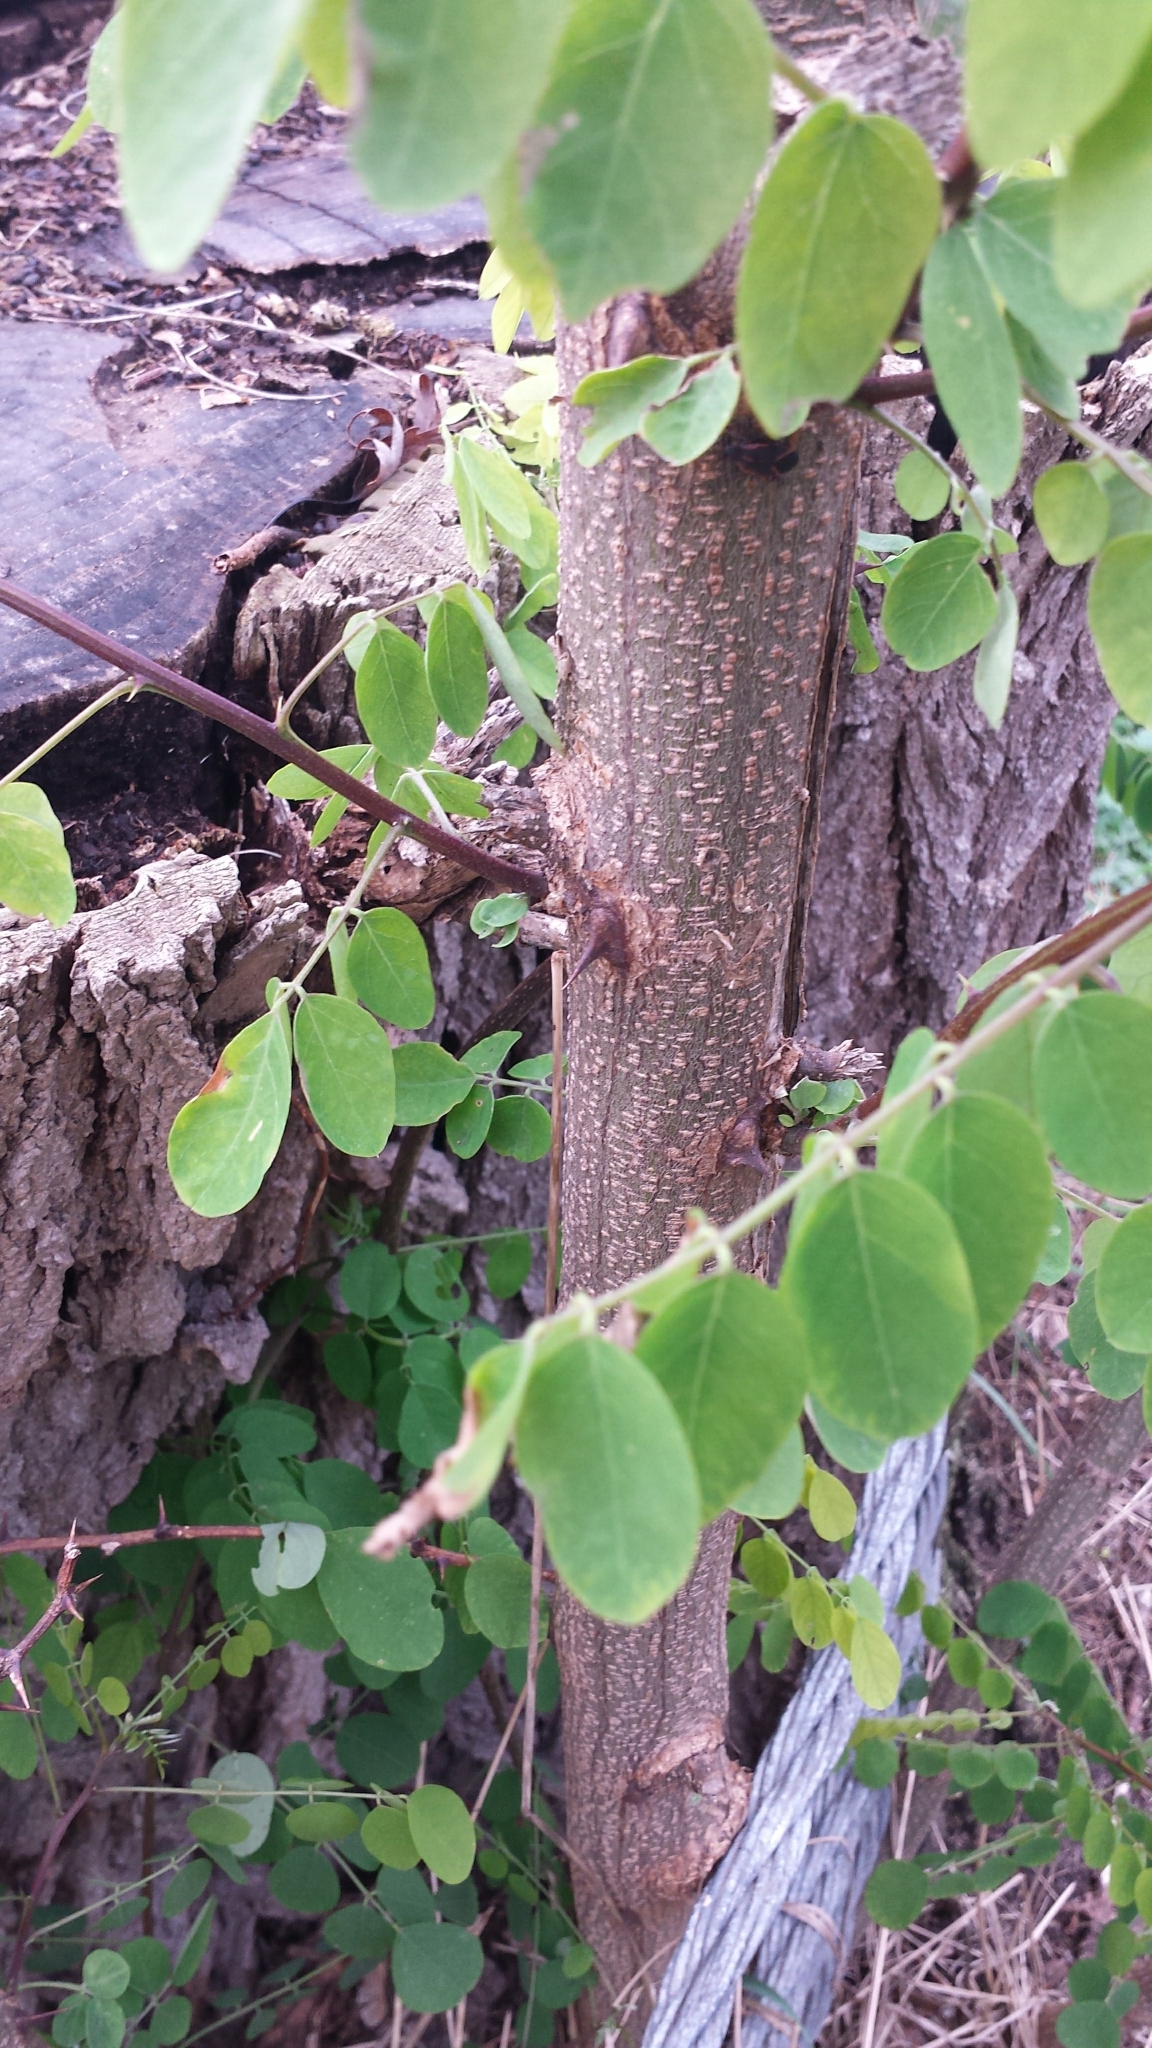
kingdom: Plantae
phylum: Tracheophyta
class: Magnoliopsida
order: Fabales
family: Fabaceae
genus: Robinia
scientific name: Robinia pseudoacacia
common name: Black locust
